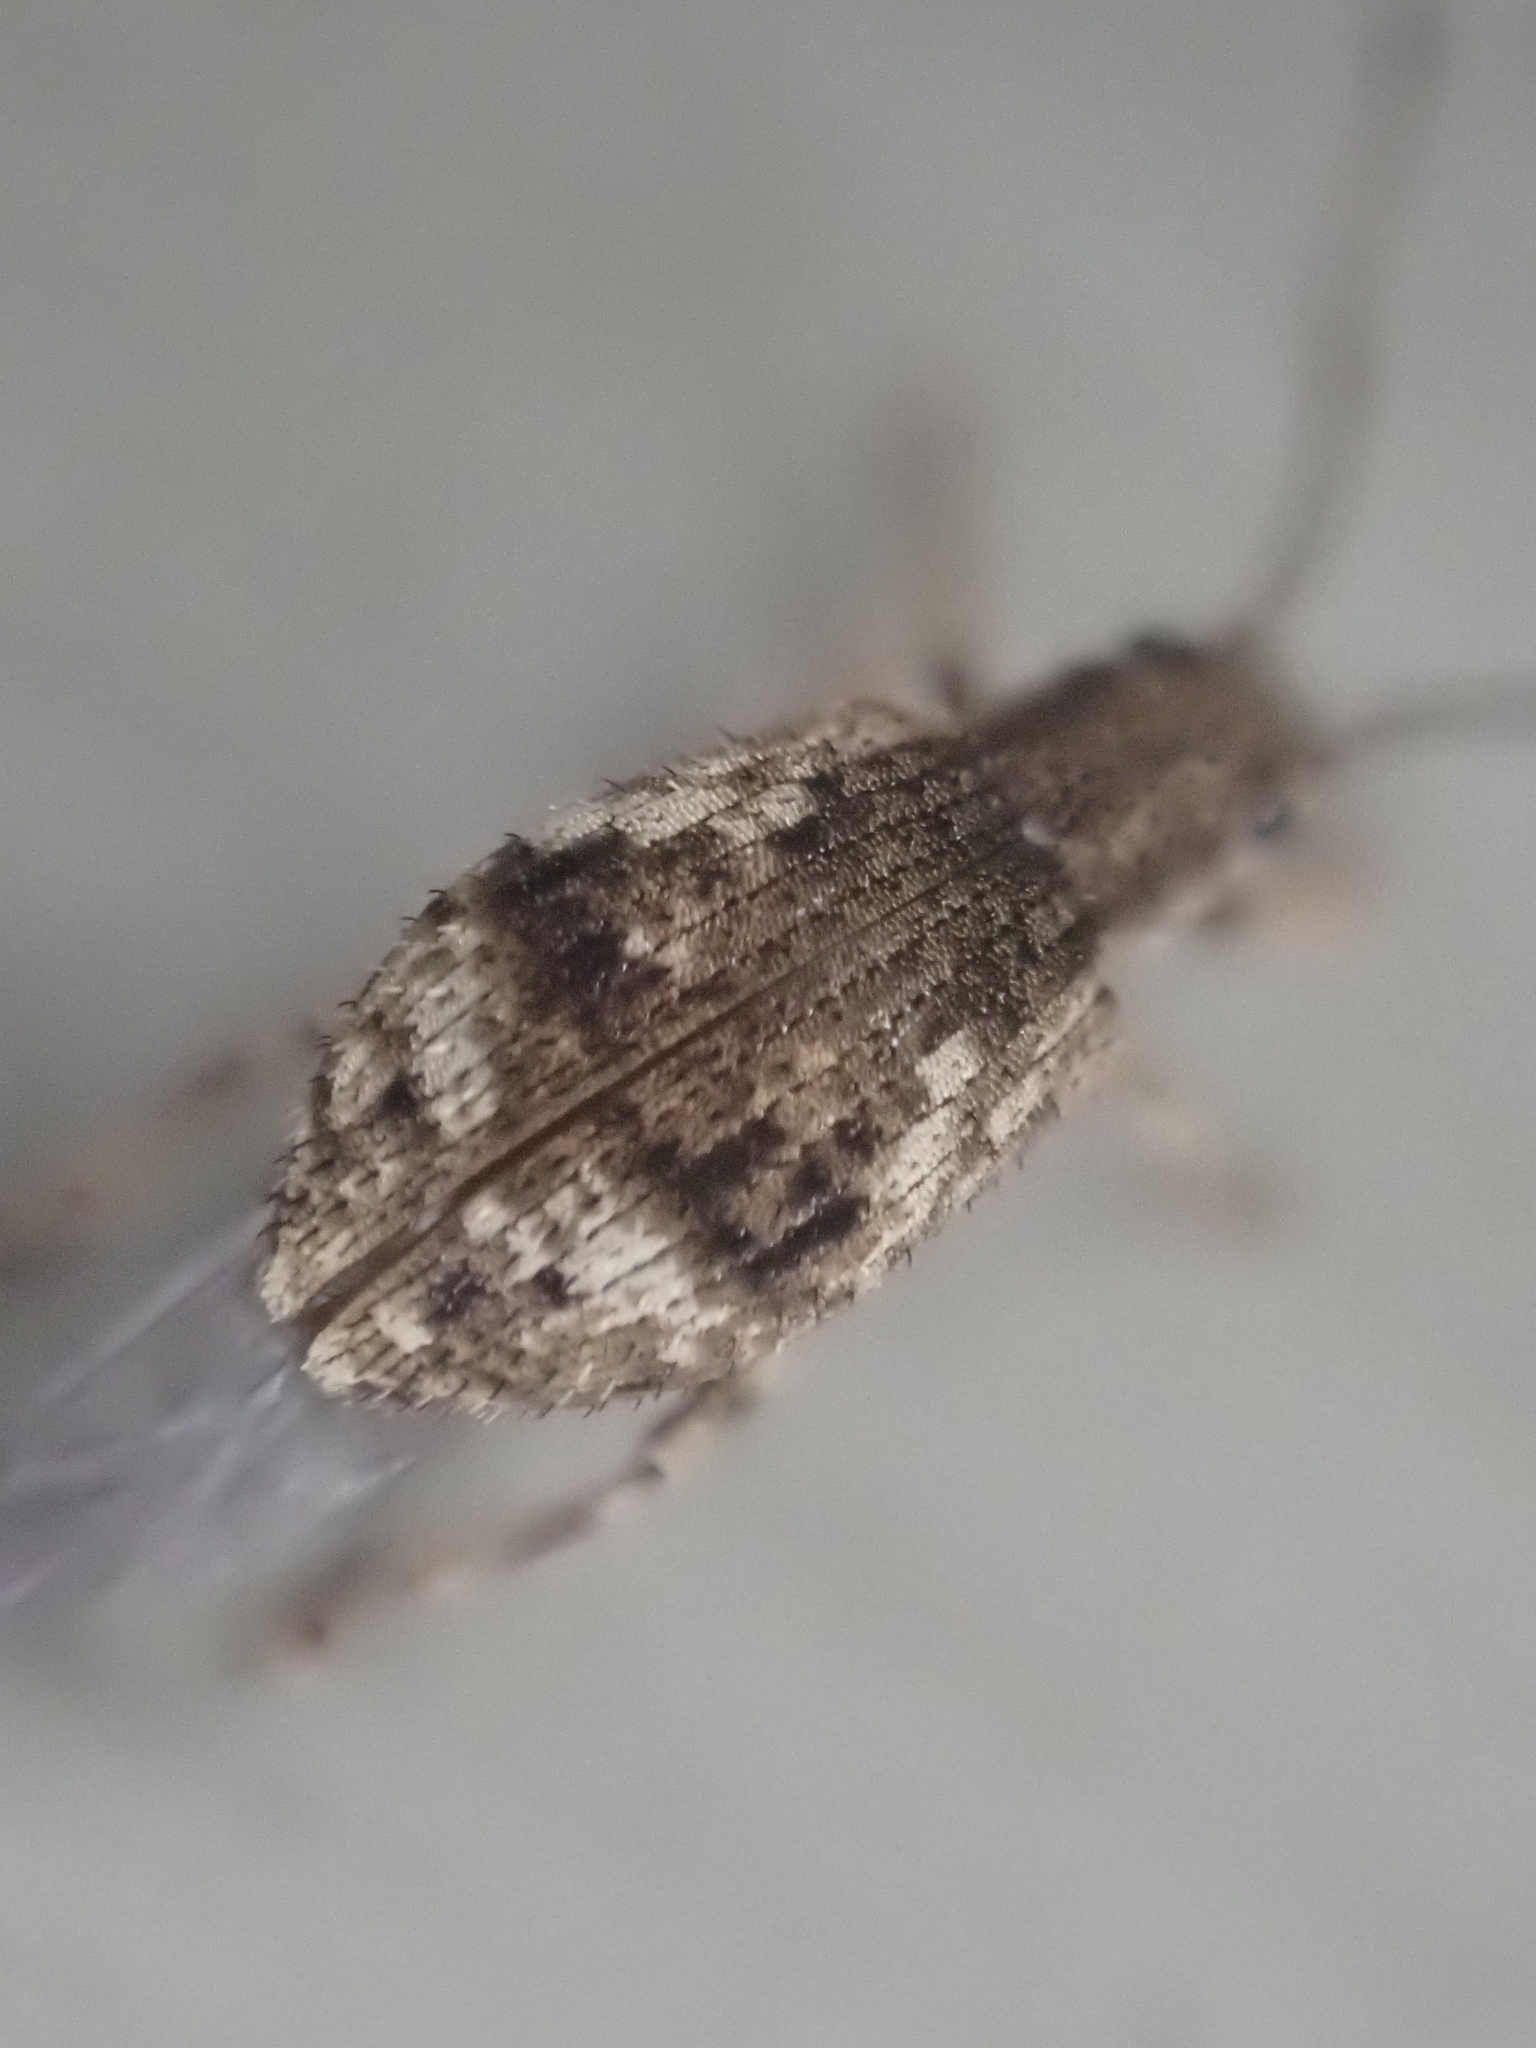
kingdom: Animalia
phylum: Arthropoda
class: Insecta
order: Coleoptera
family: Curculionidae
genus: Pseudoedophrys
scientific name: Pseudoedophrys hilleri
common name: Weevil
